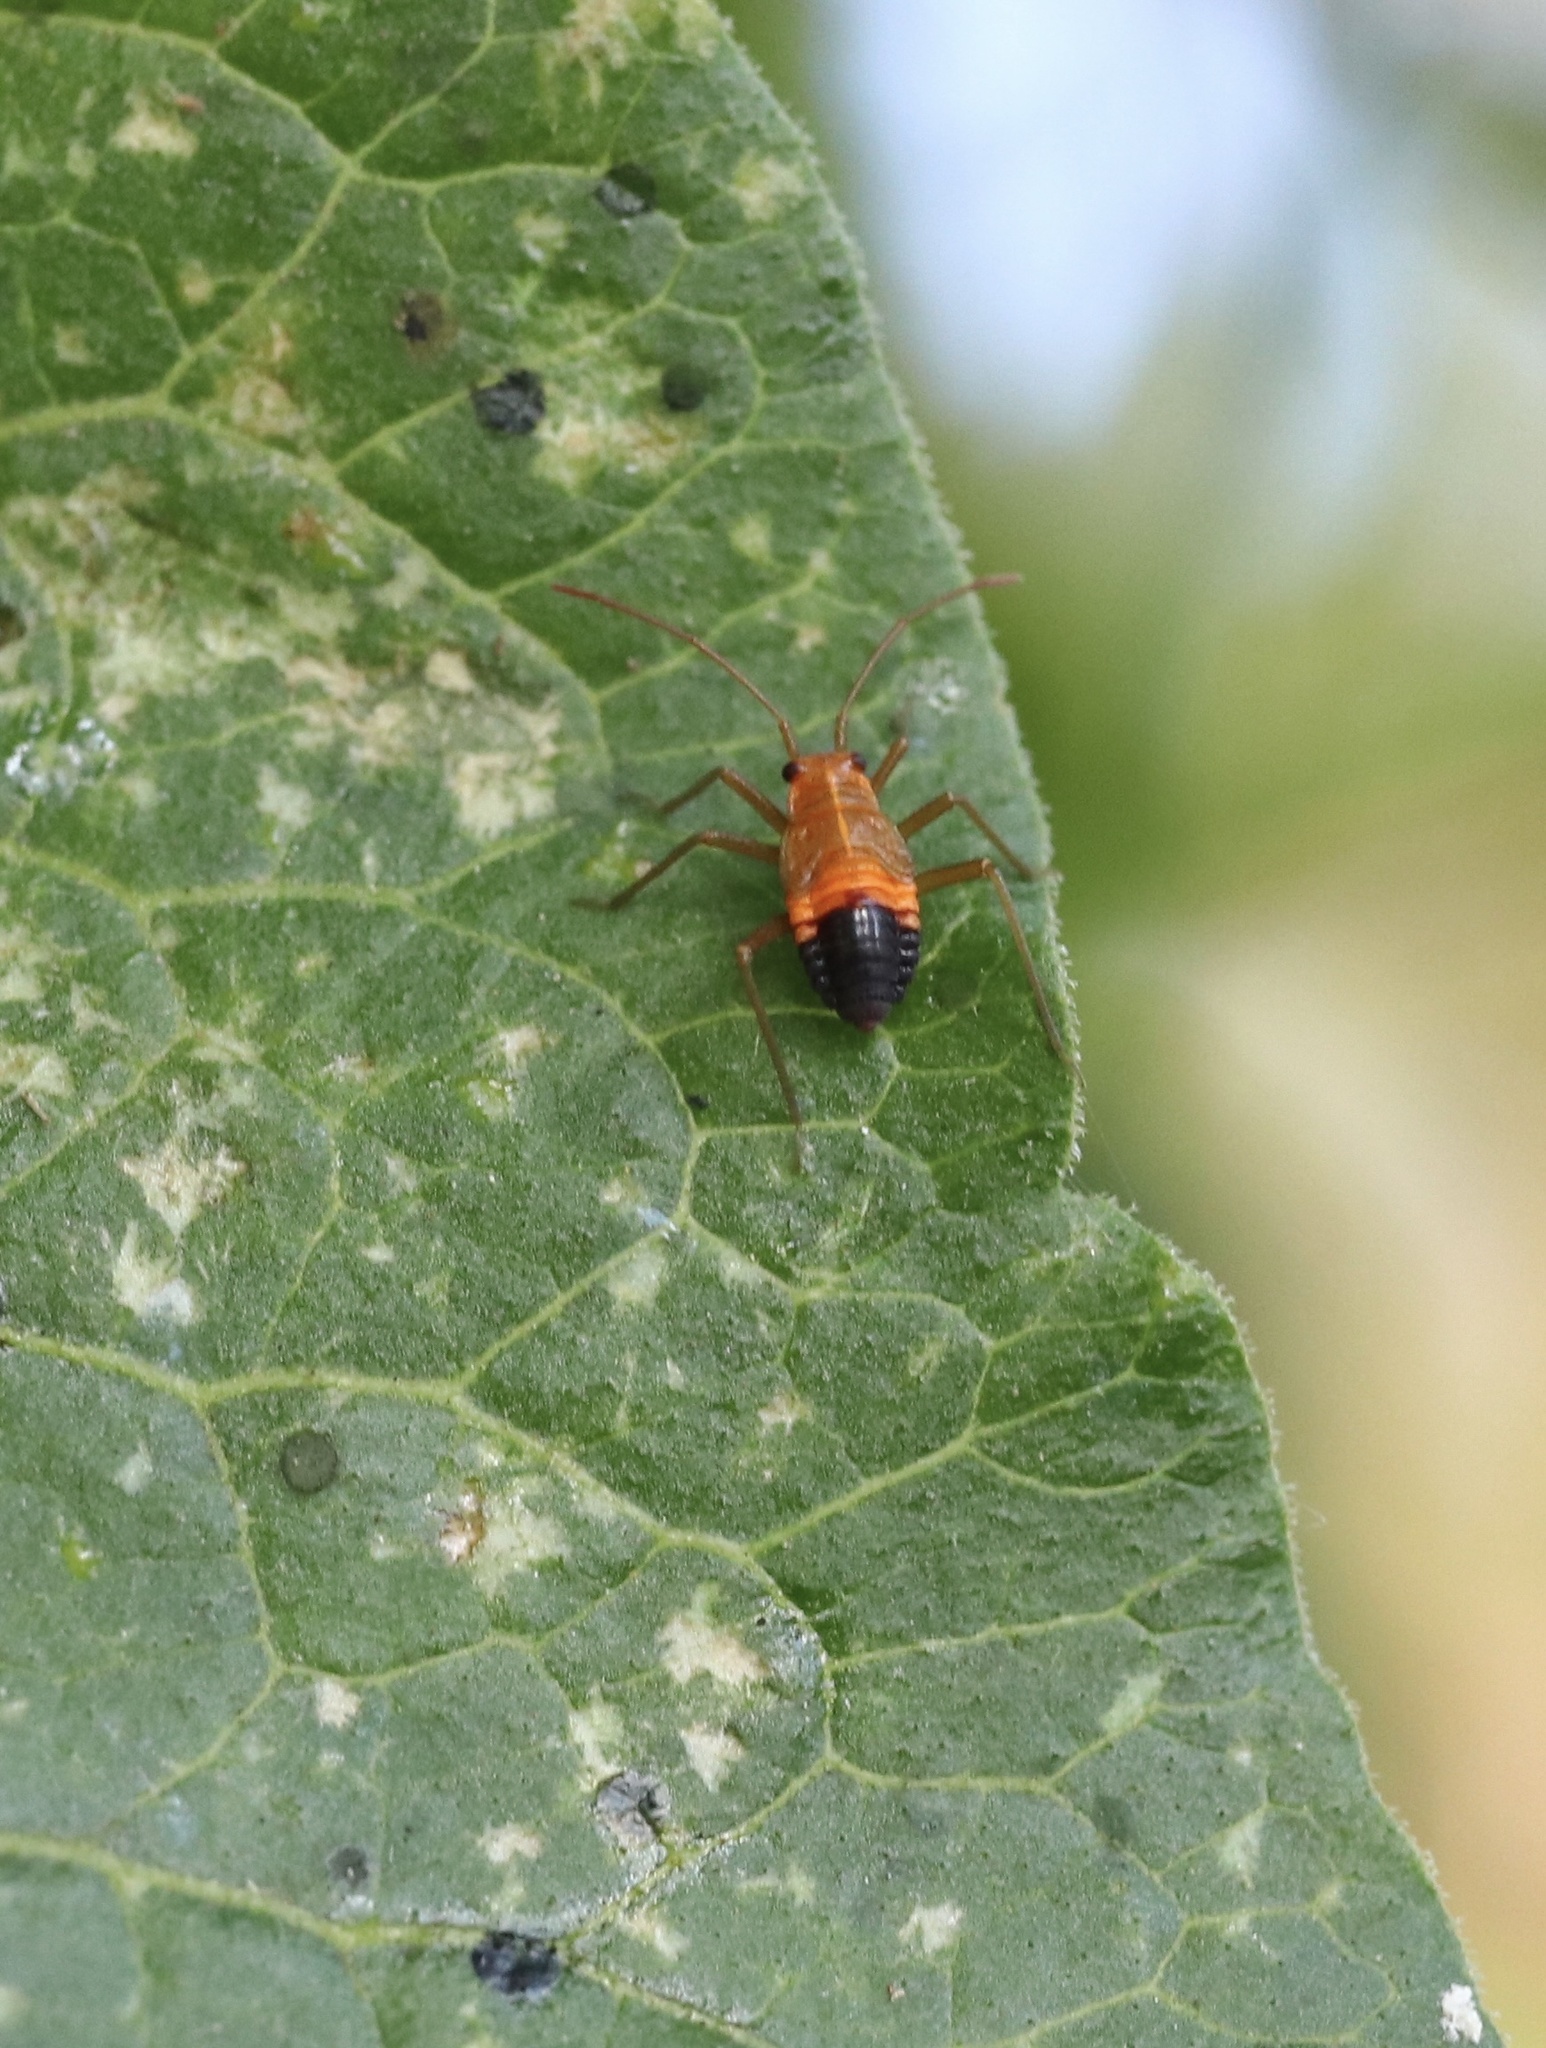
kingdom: Animalia
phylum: Arthropoda
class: Insecta
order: Hemiptera
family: Miridae
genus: Eurylomata
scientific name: Eurylomata
